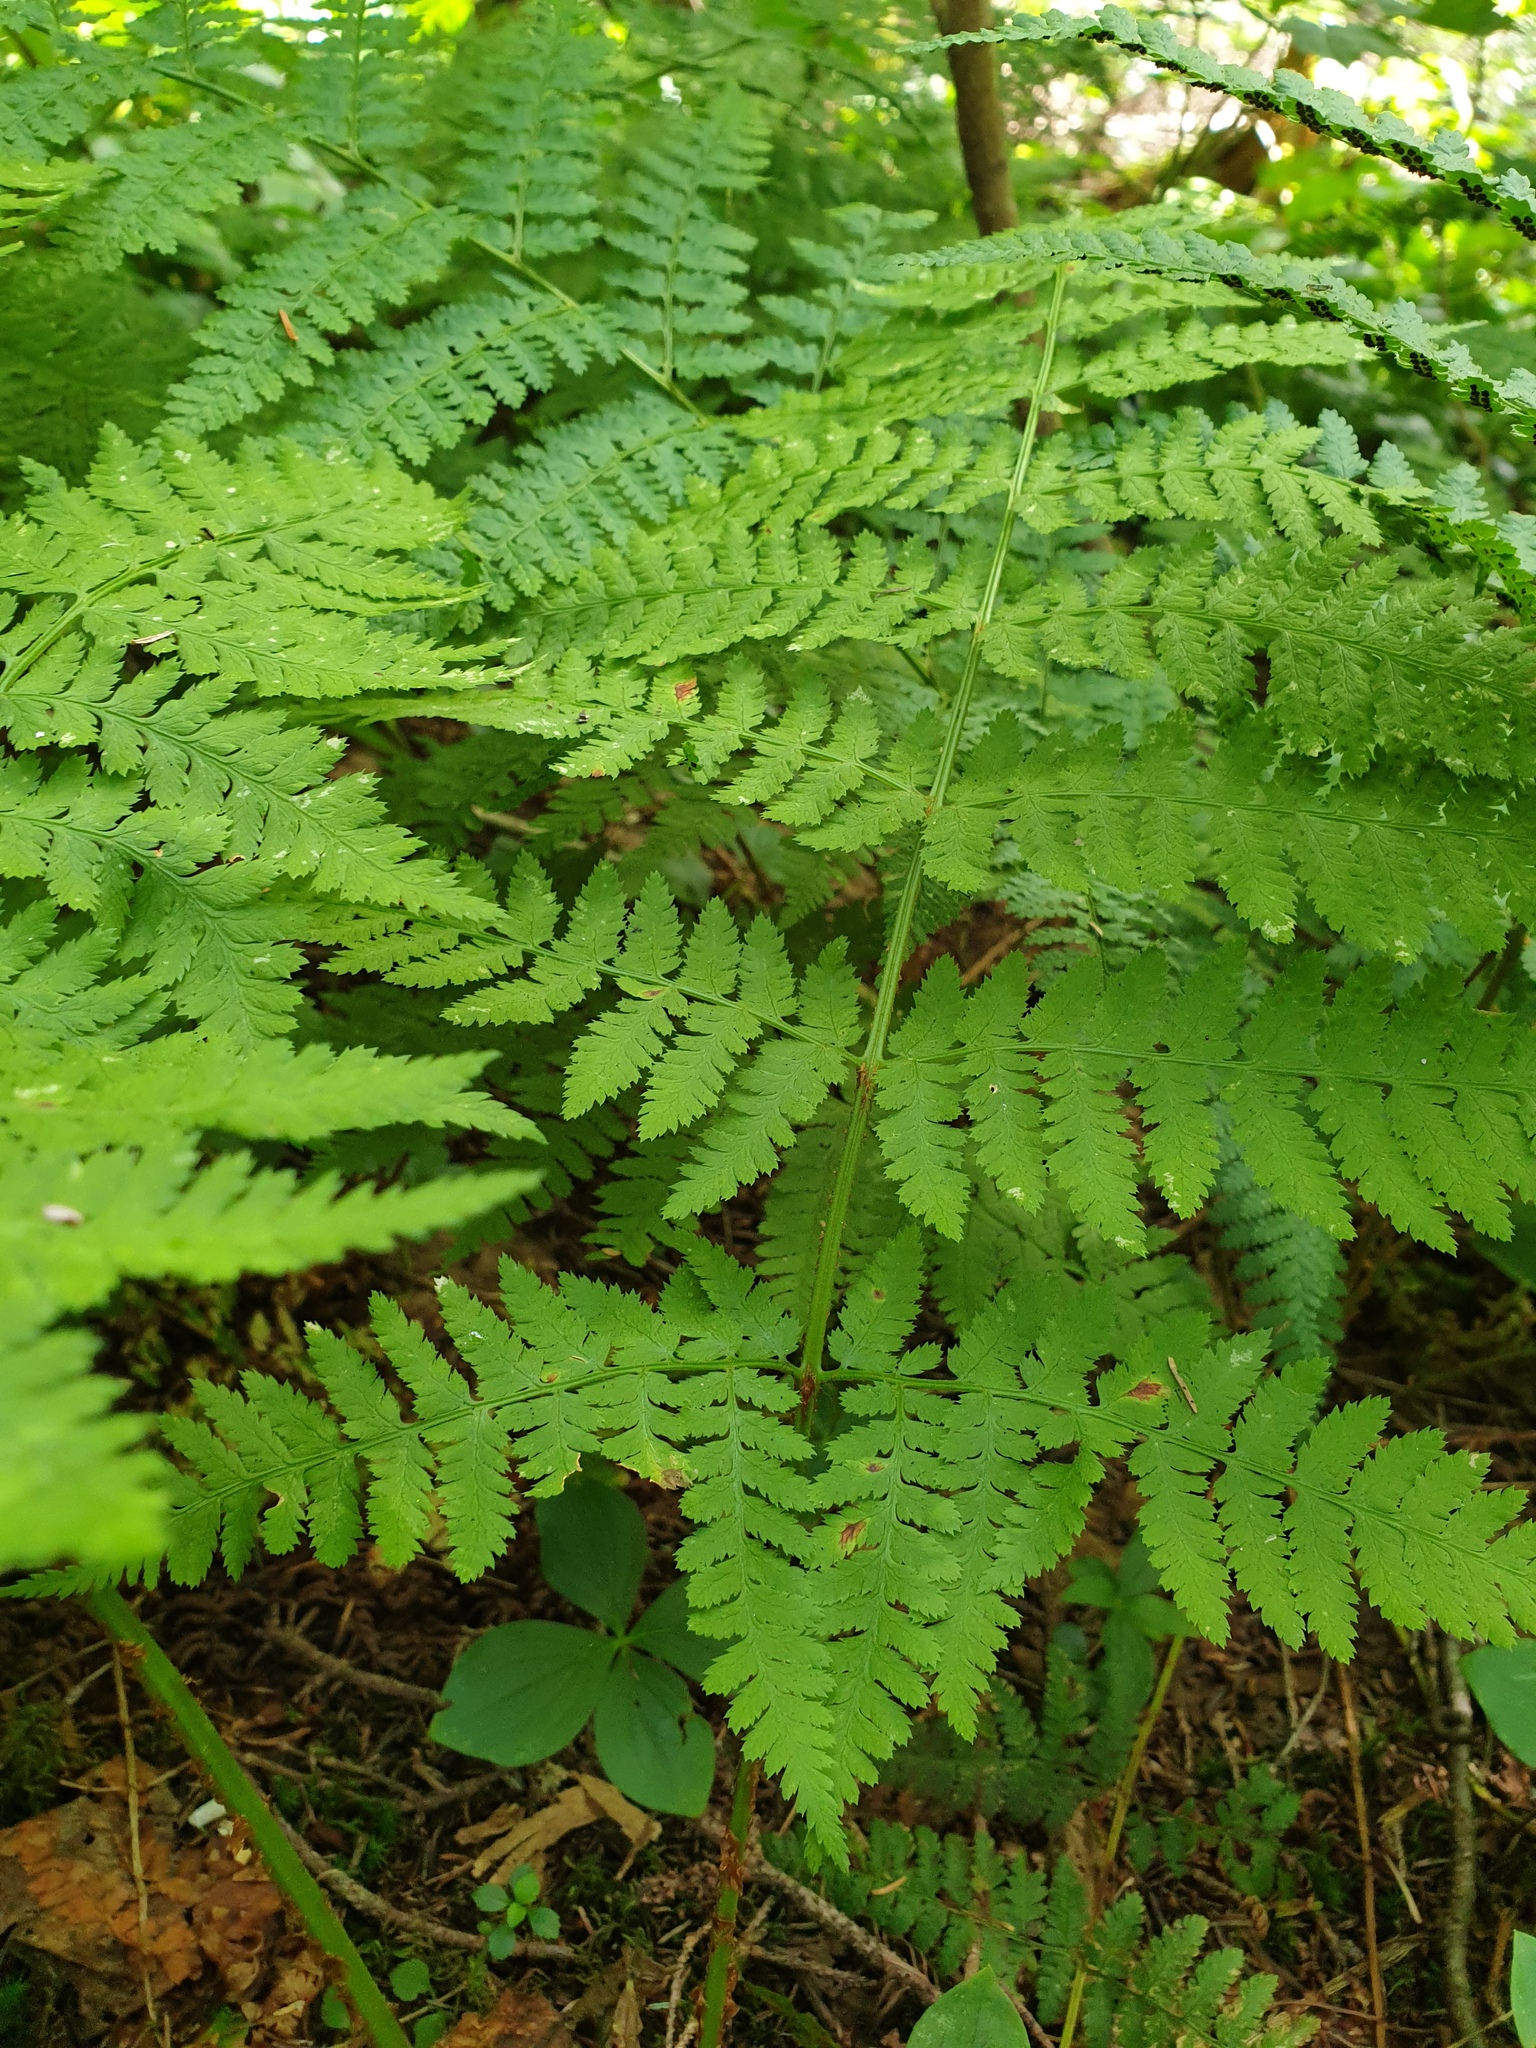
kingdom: Plantae
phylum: Tracheophyta
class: Polypodiopsida
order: Polypodiales
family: Dryopteridaceae
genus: Dryopteris
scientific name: Dryopteris campyloptera
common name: Mountain wood fern
